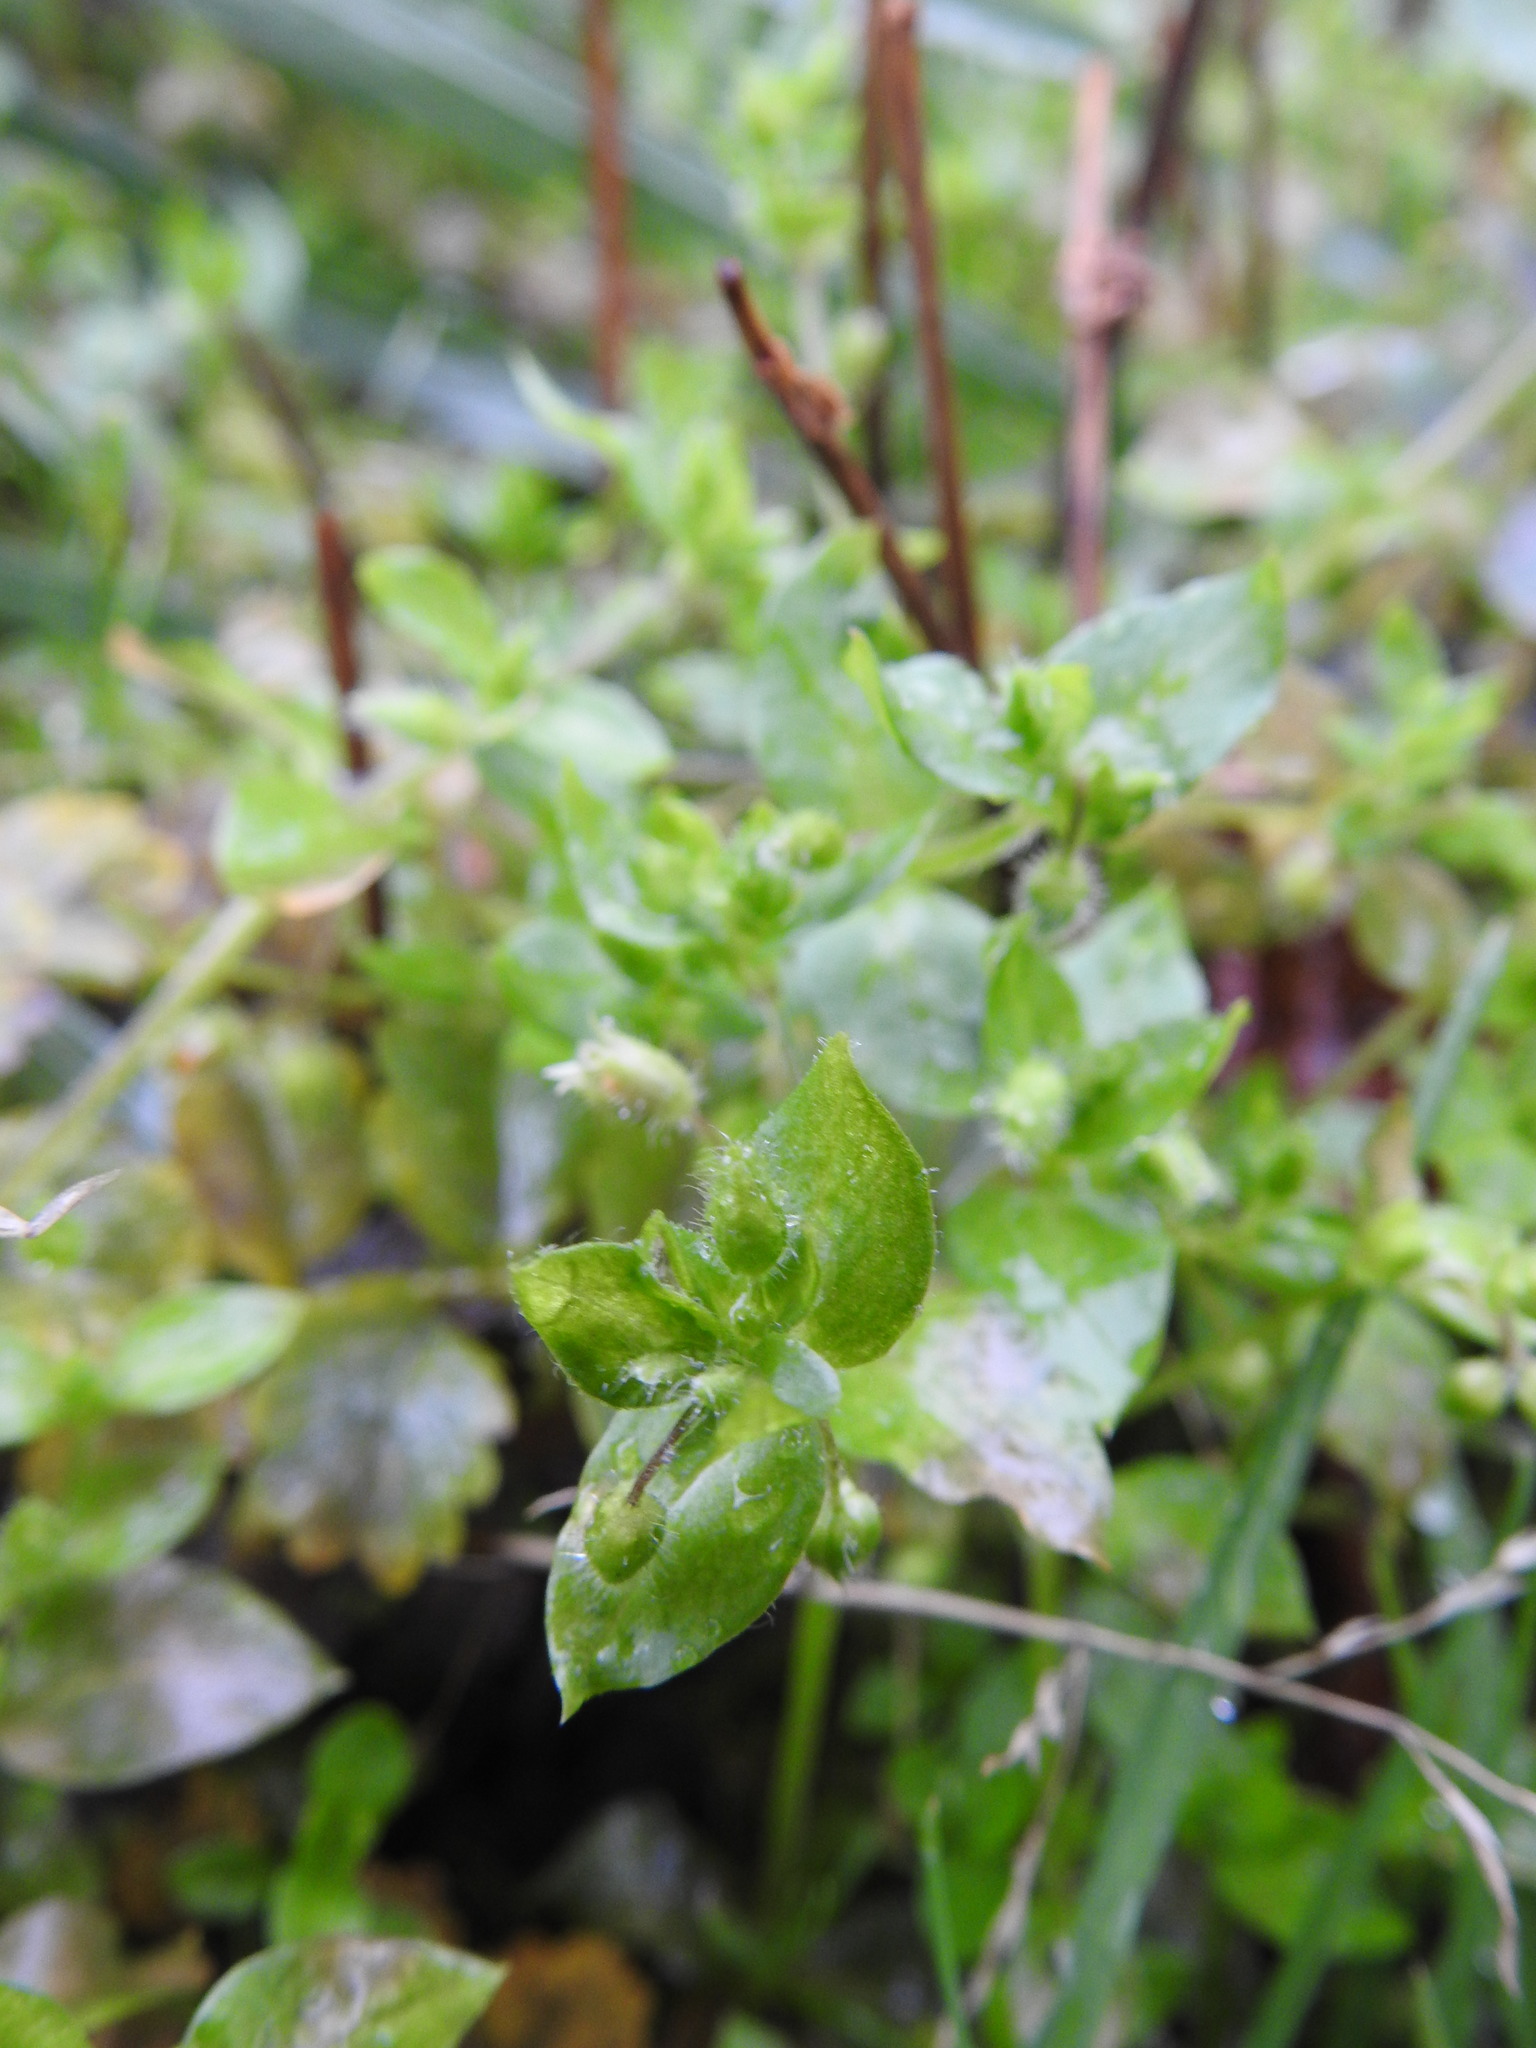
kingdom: Plantae
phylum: Tracheophyta
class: Magnoliopsida
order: Caryophyllales
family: Caryophyllaceae
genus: Cerastium
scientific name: Cerastium fontanum
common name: Common mouse-ear
